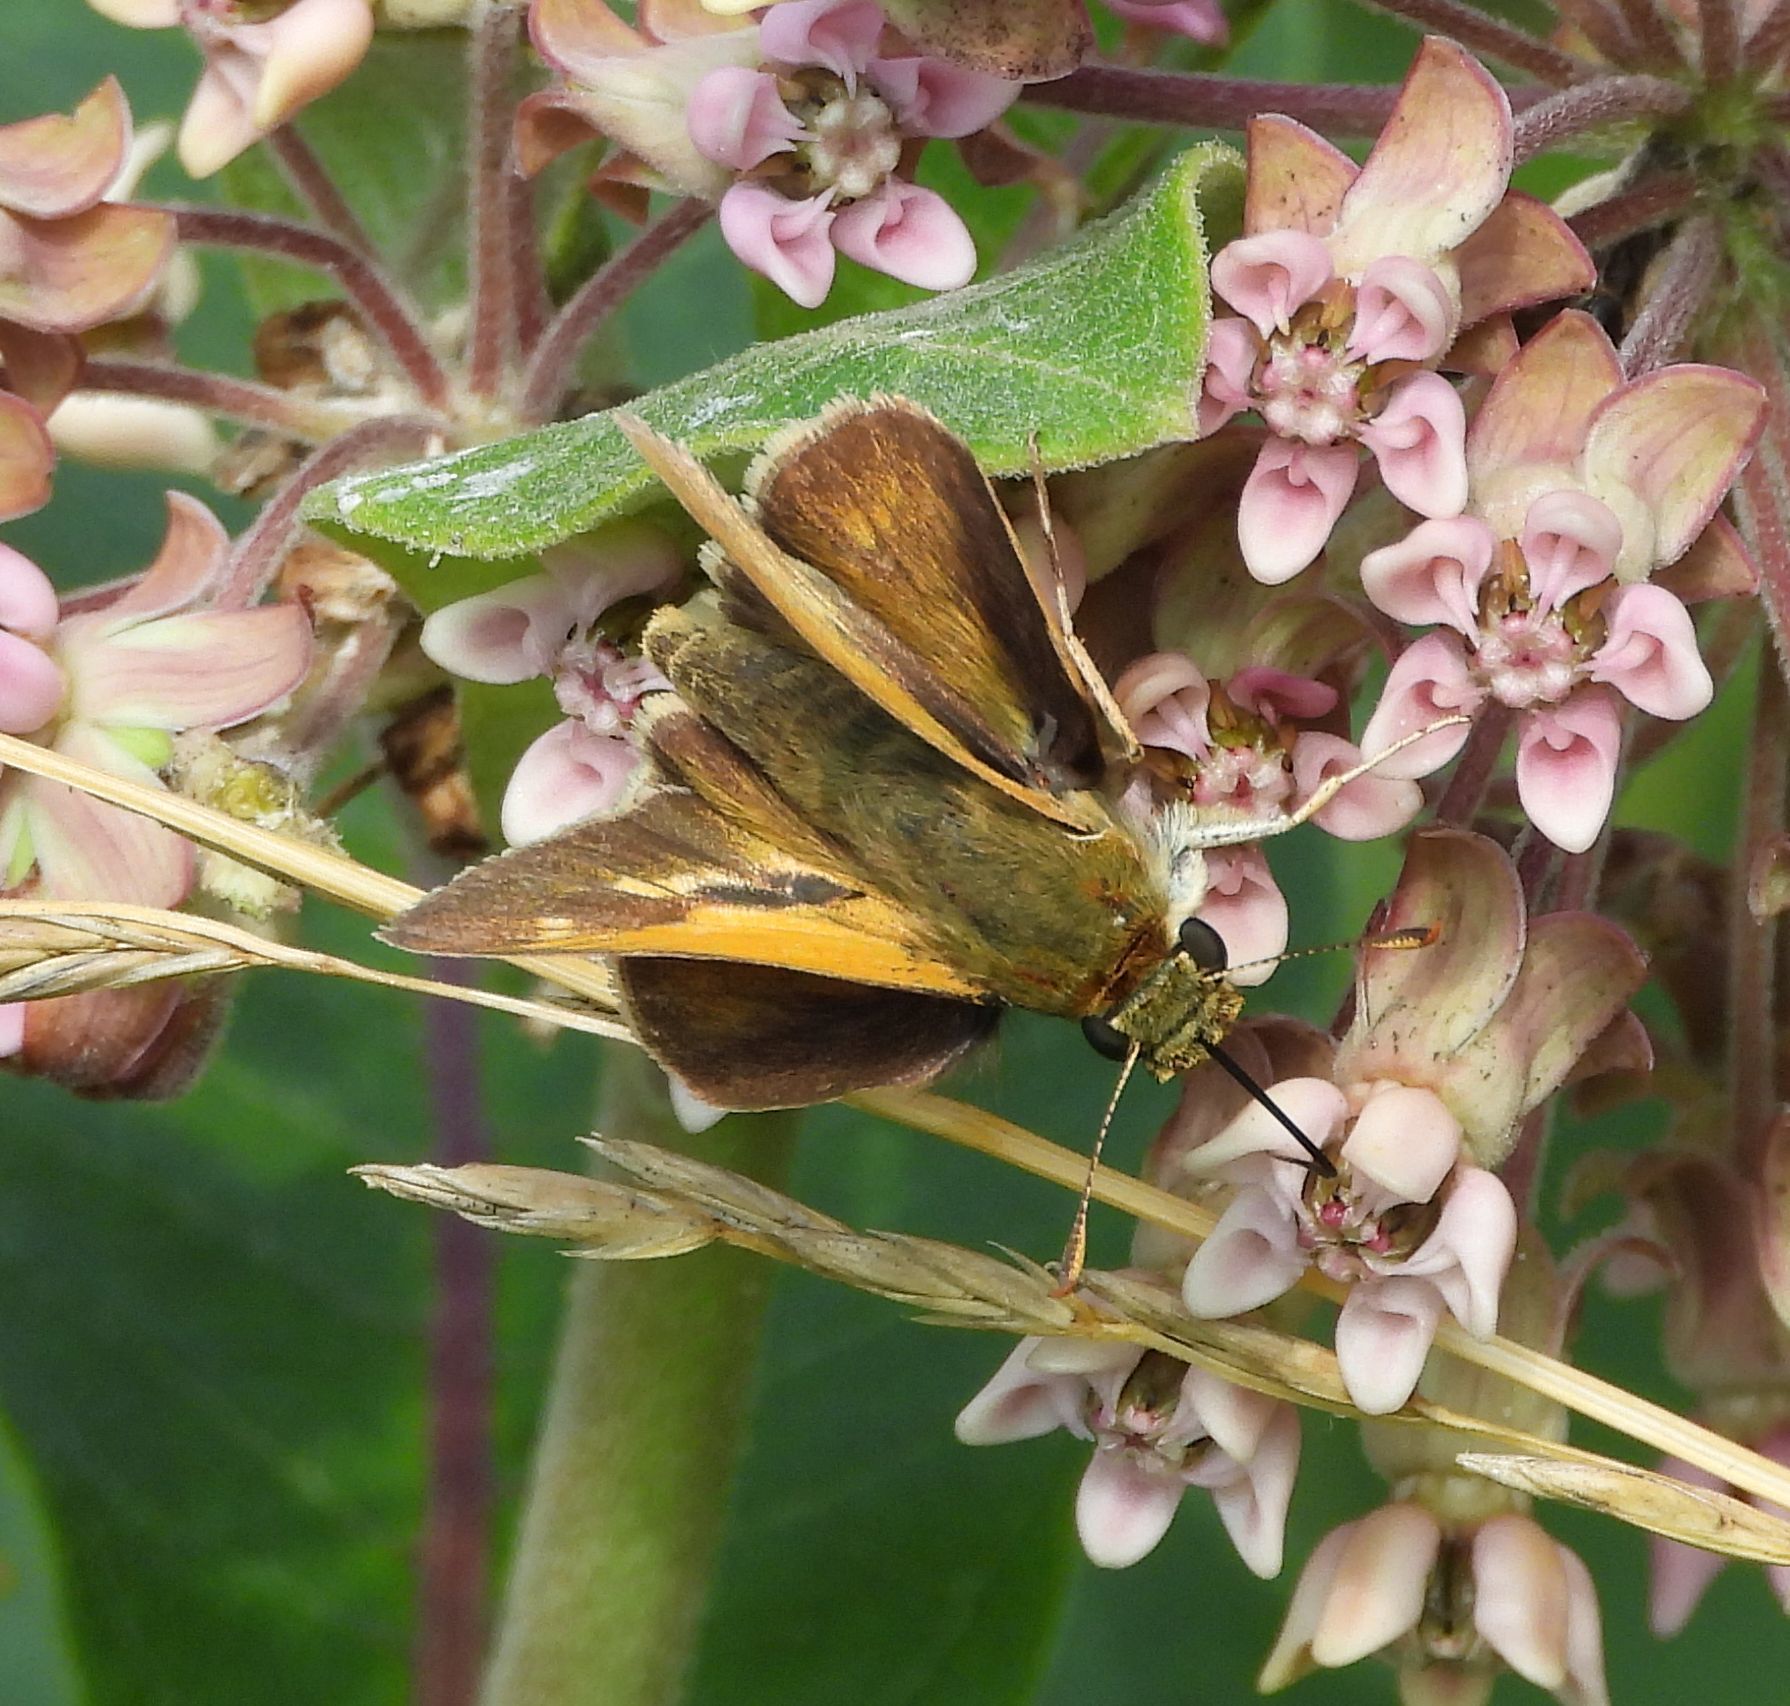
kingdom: Animalia
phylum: Arthropoda
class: Insecta
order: Lepidoptera
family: Hesperiidae
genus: Polites
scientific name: Polites origenes
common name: Crossline skipper
